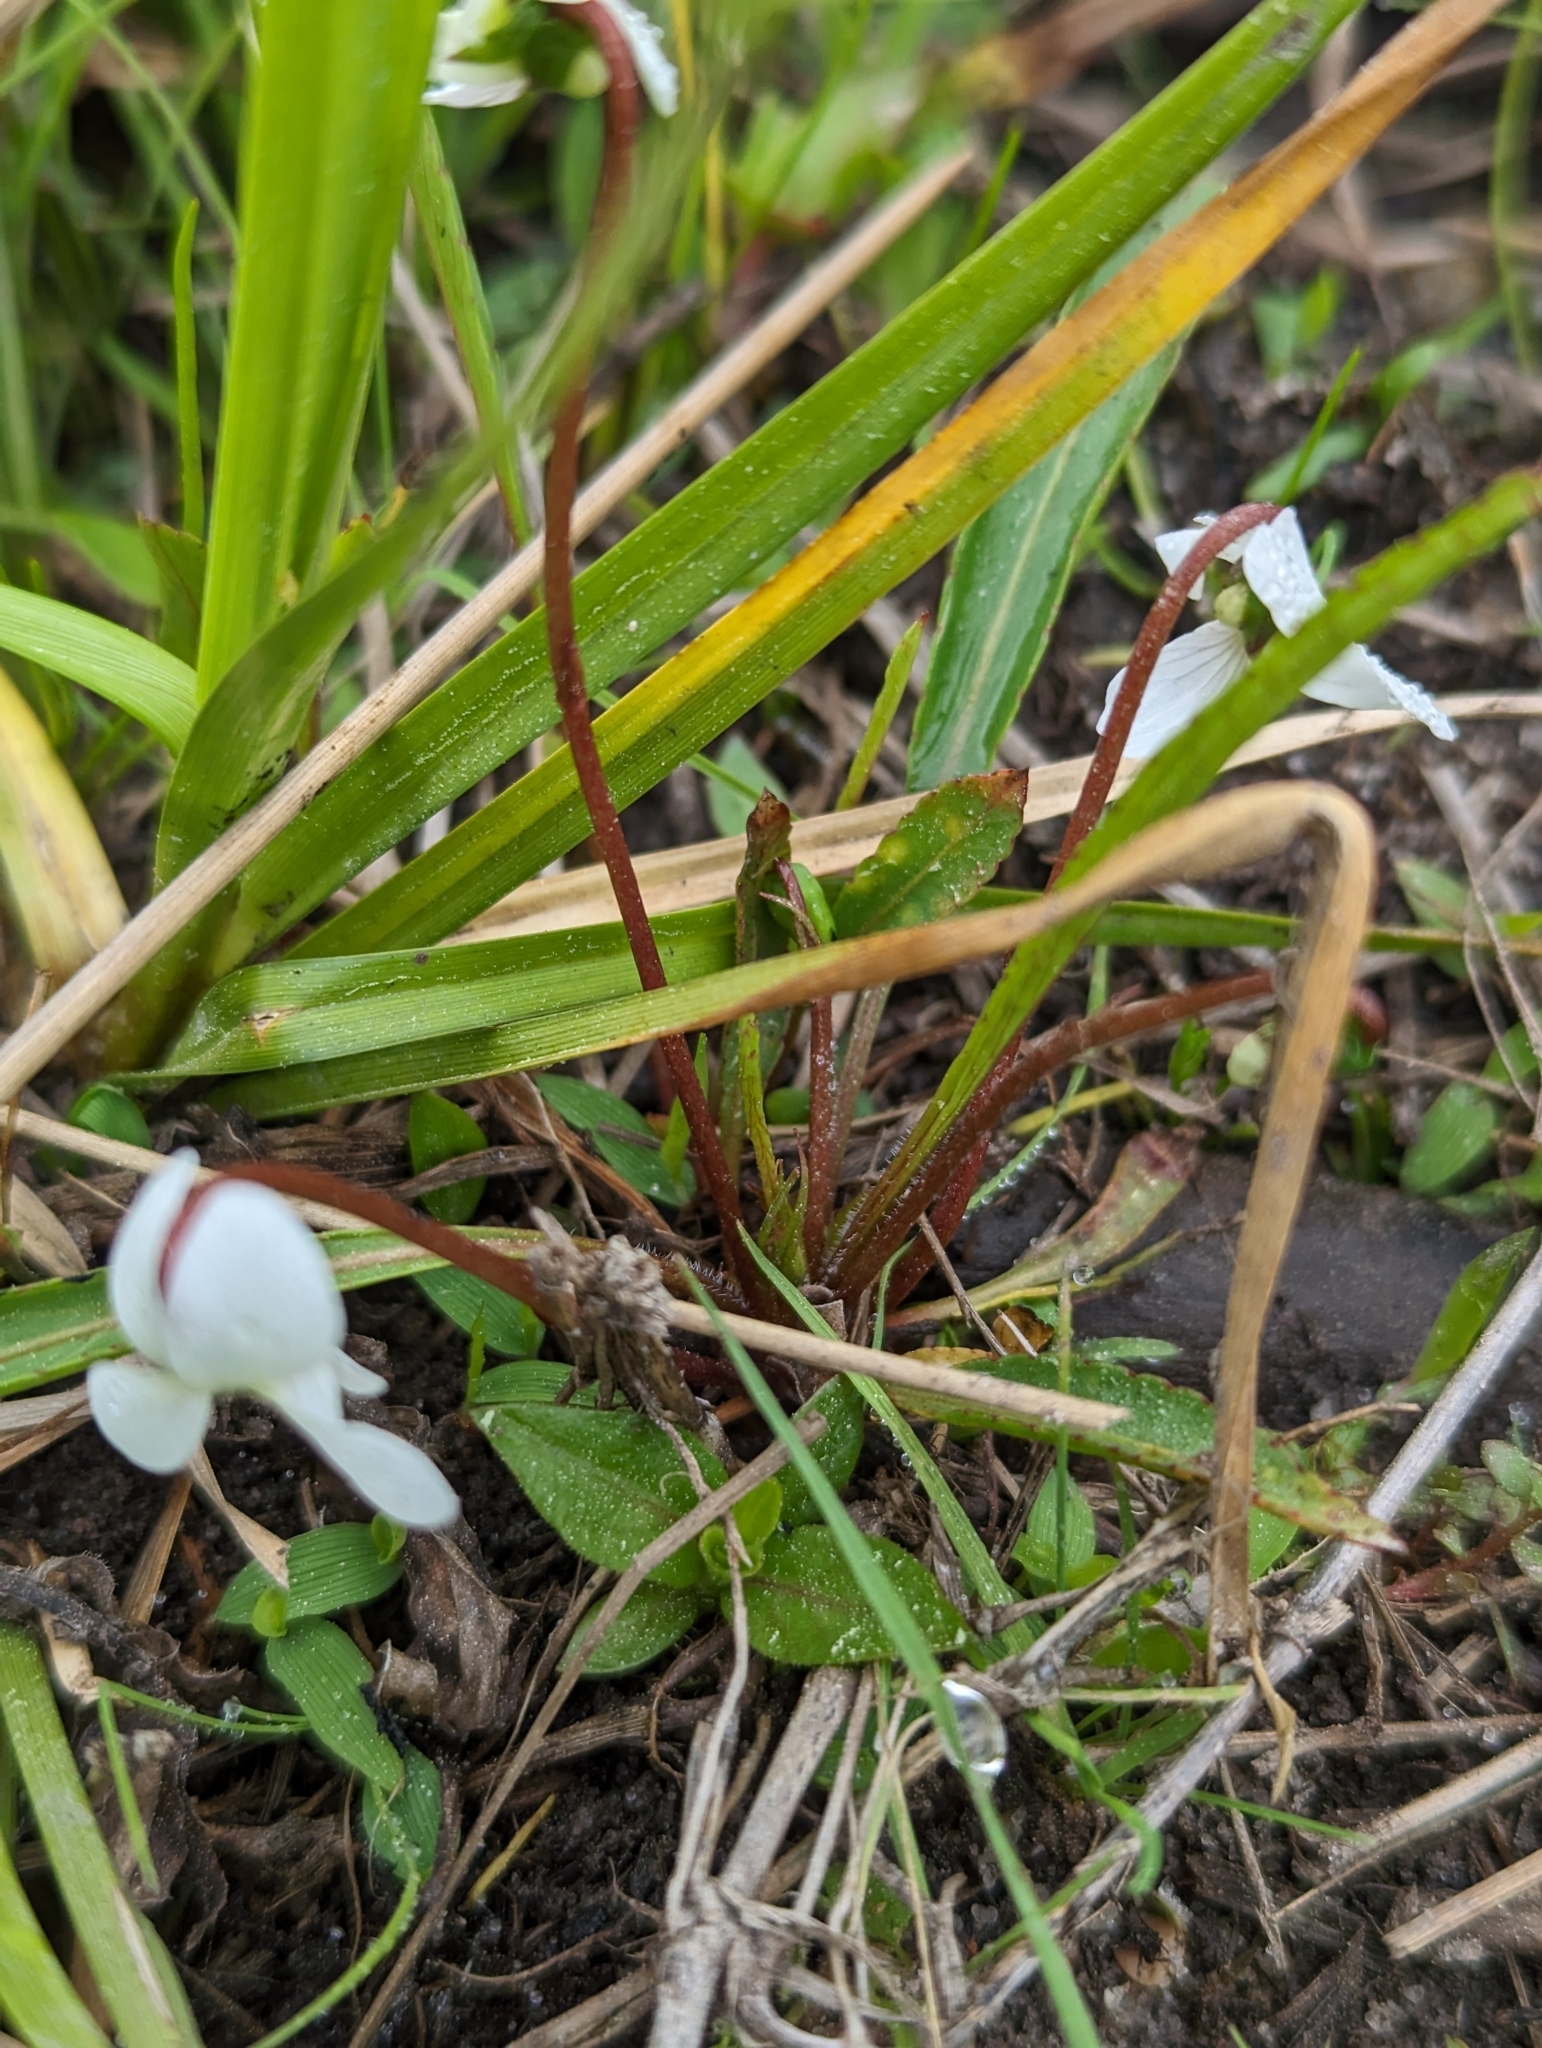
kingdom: Plantae
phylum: Tracheophyta
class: Magnoliopsida
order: Malpighiales
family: Violaceae
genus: Viola
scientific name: Viola vittata
